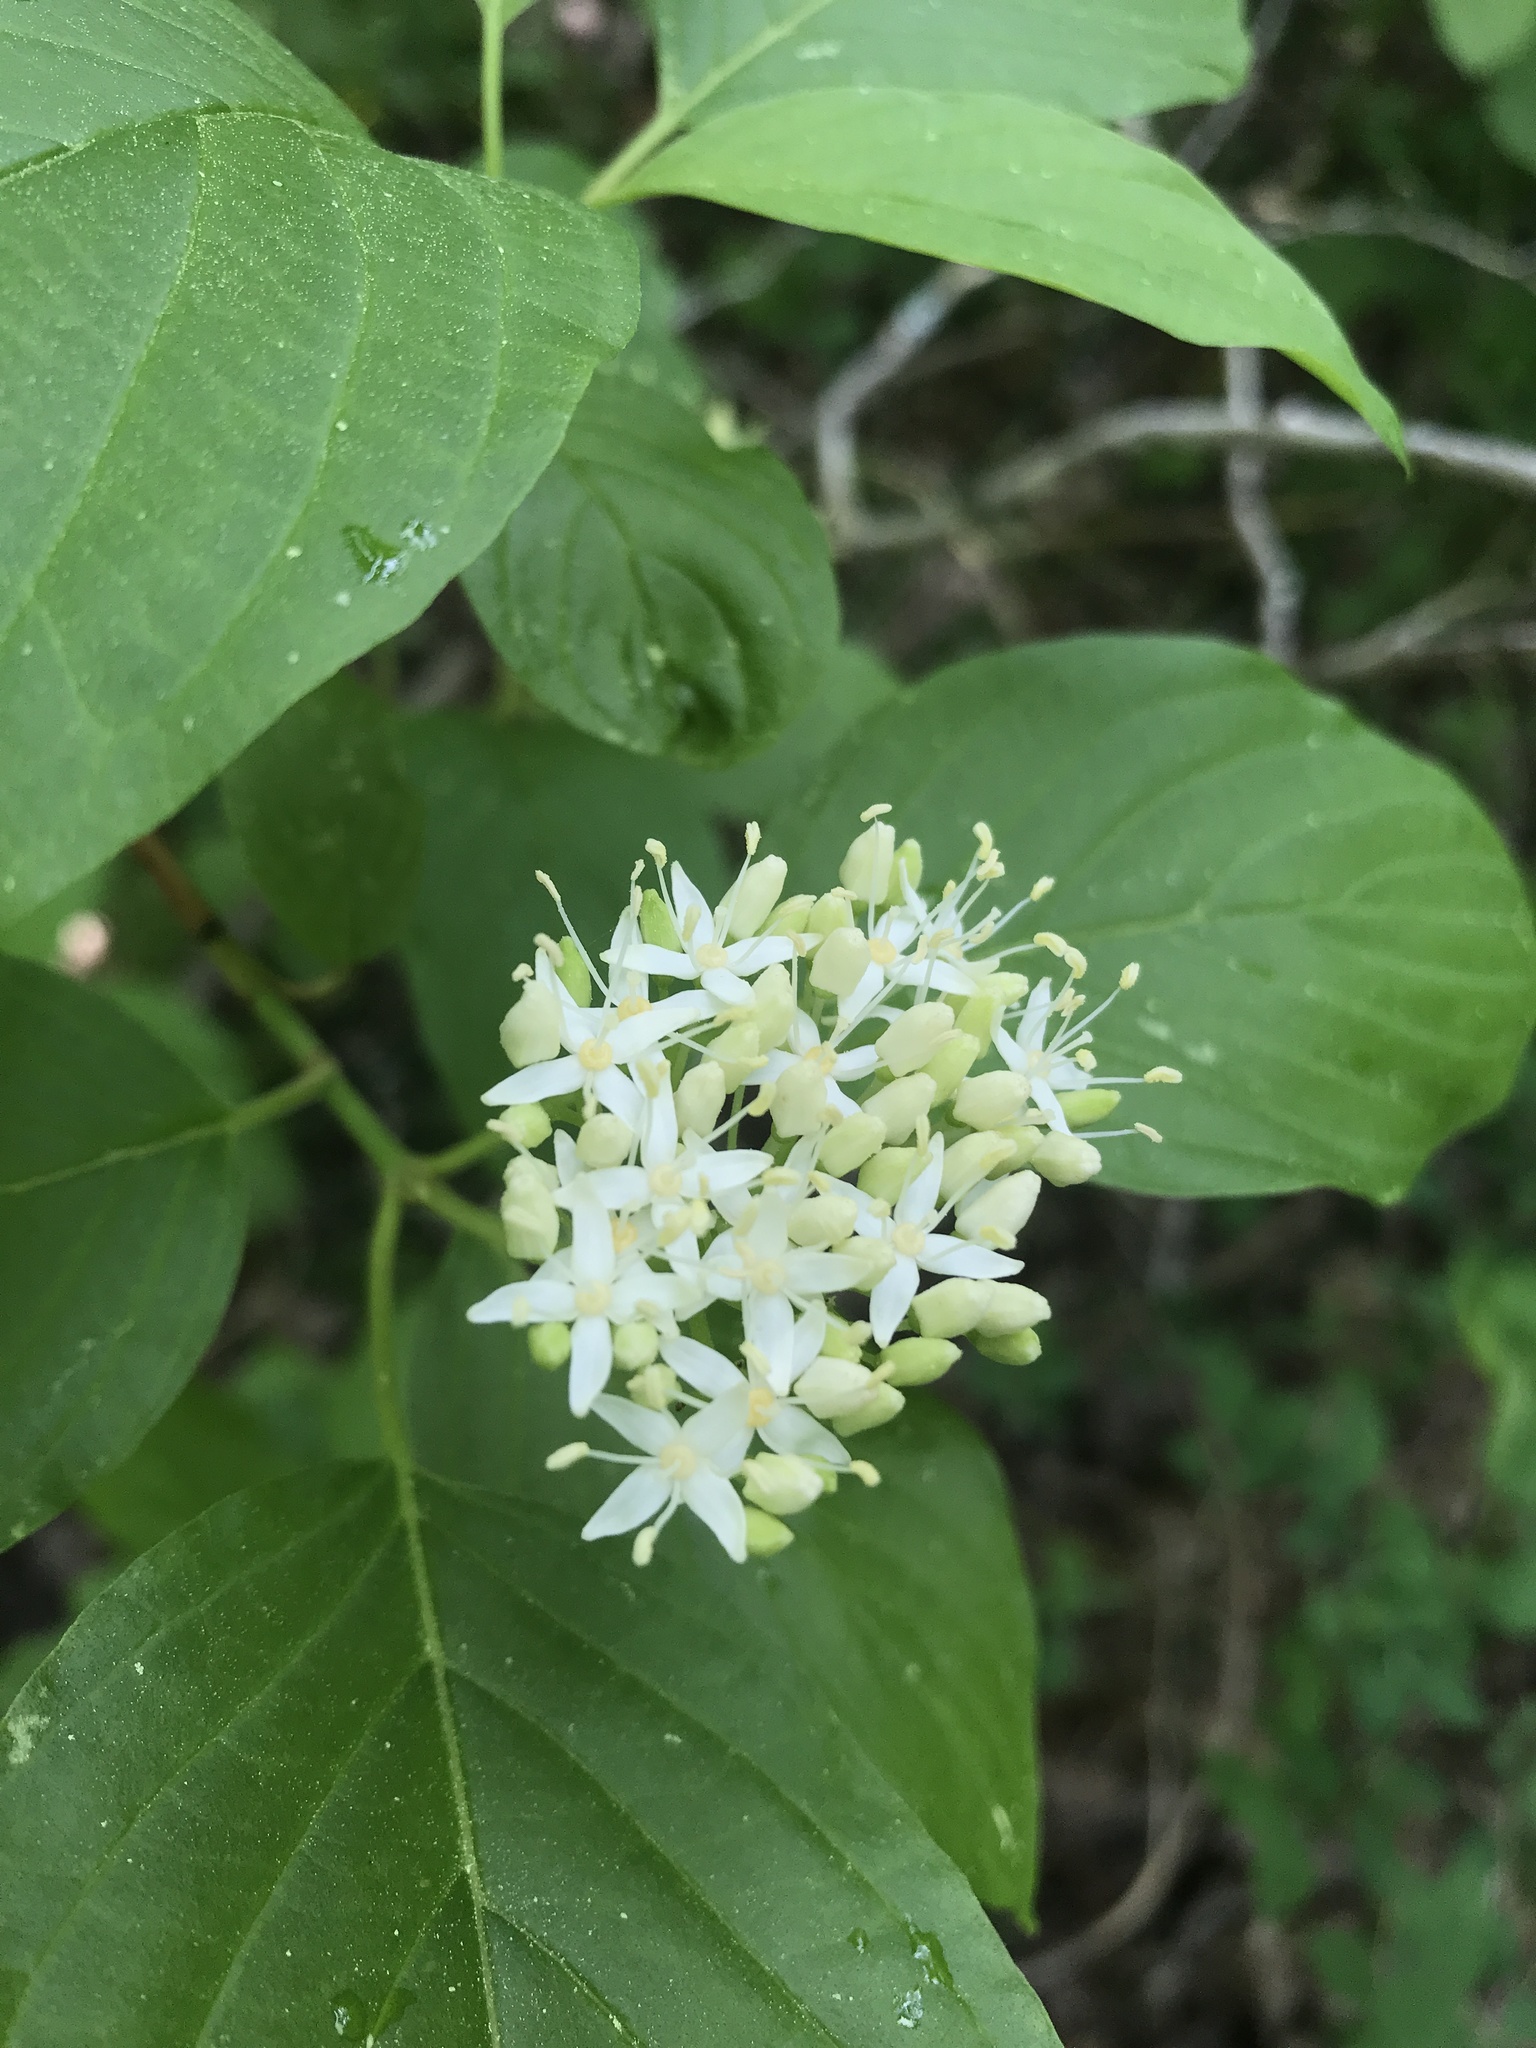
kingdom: Plantae
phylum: Tracheophyta
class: Magnoliopsida
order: Cornales
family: Cornaceae
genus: Cornus
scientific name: Cornus sericea
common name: Red-osier dogwood
